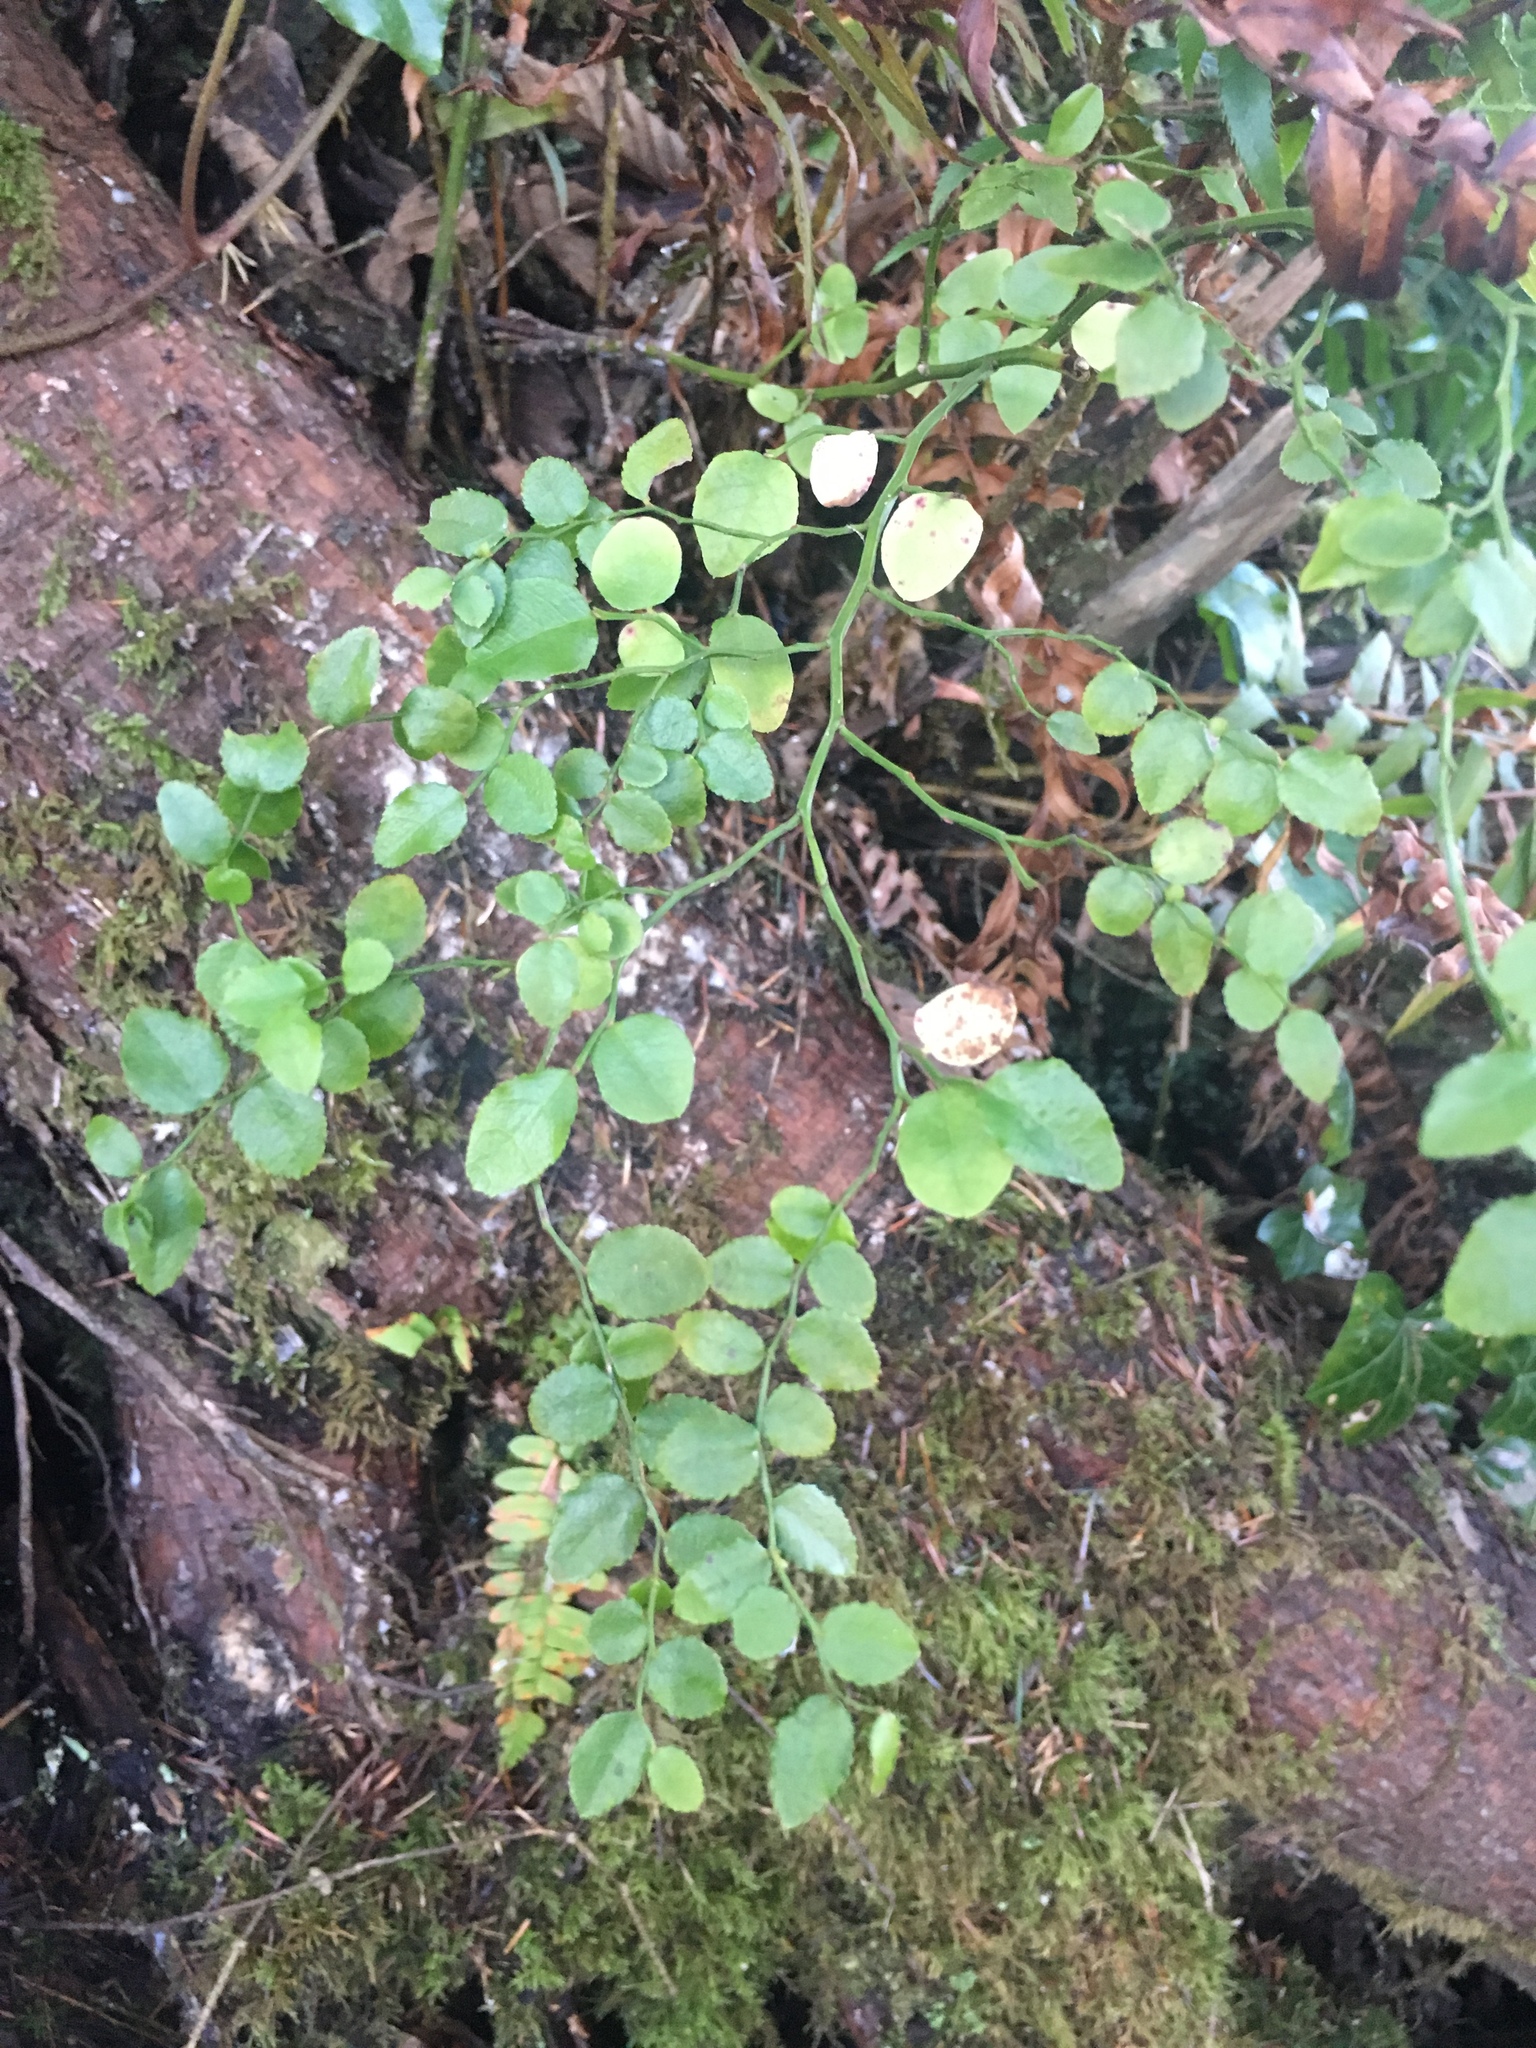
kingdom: Plantae
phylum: Tracheophyta
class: Magnoliopsida
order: Ericales
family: Ericaceae
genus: Vaccinium
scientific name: Vaccinium parvifolium
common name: Red-huckleberry
